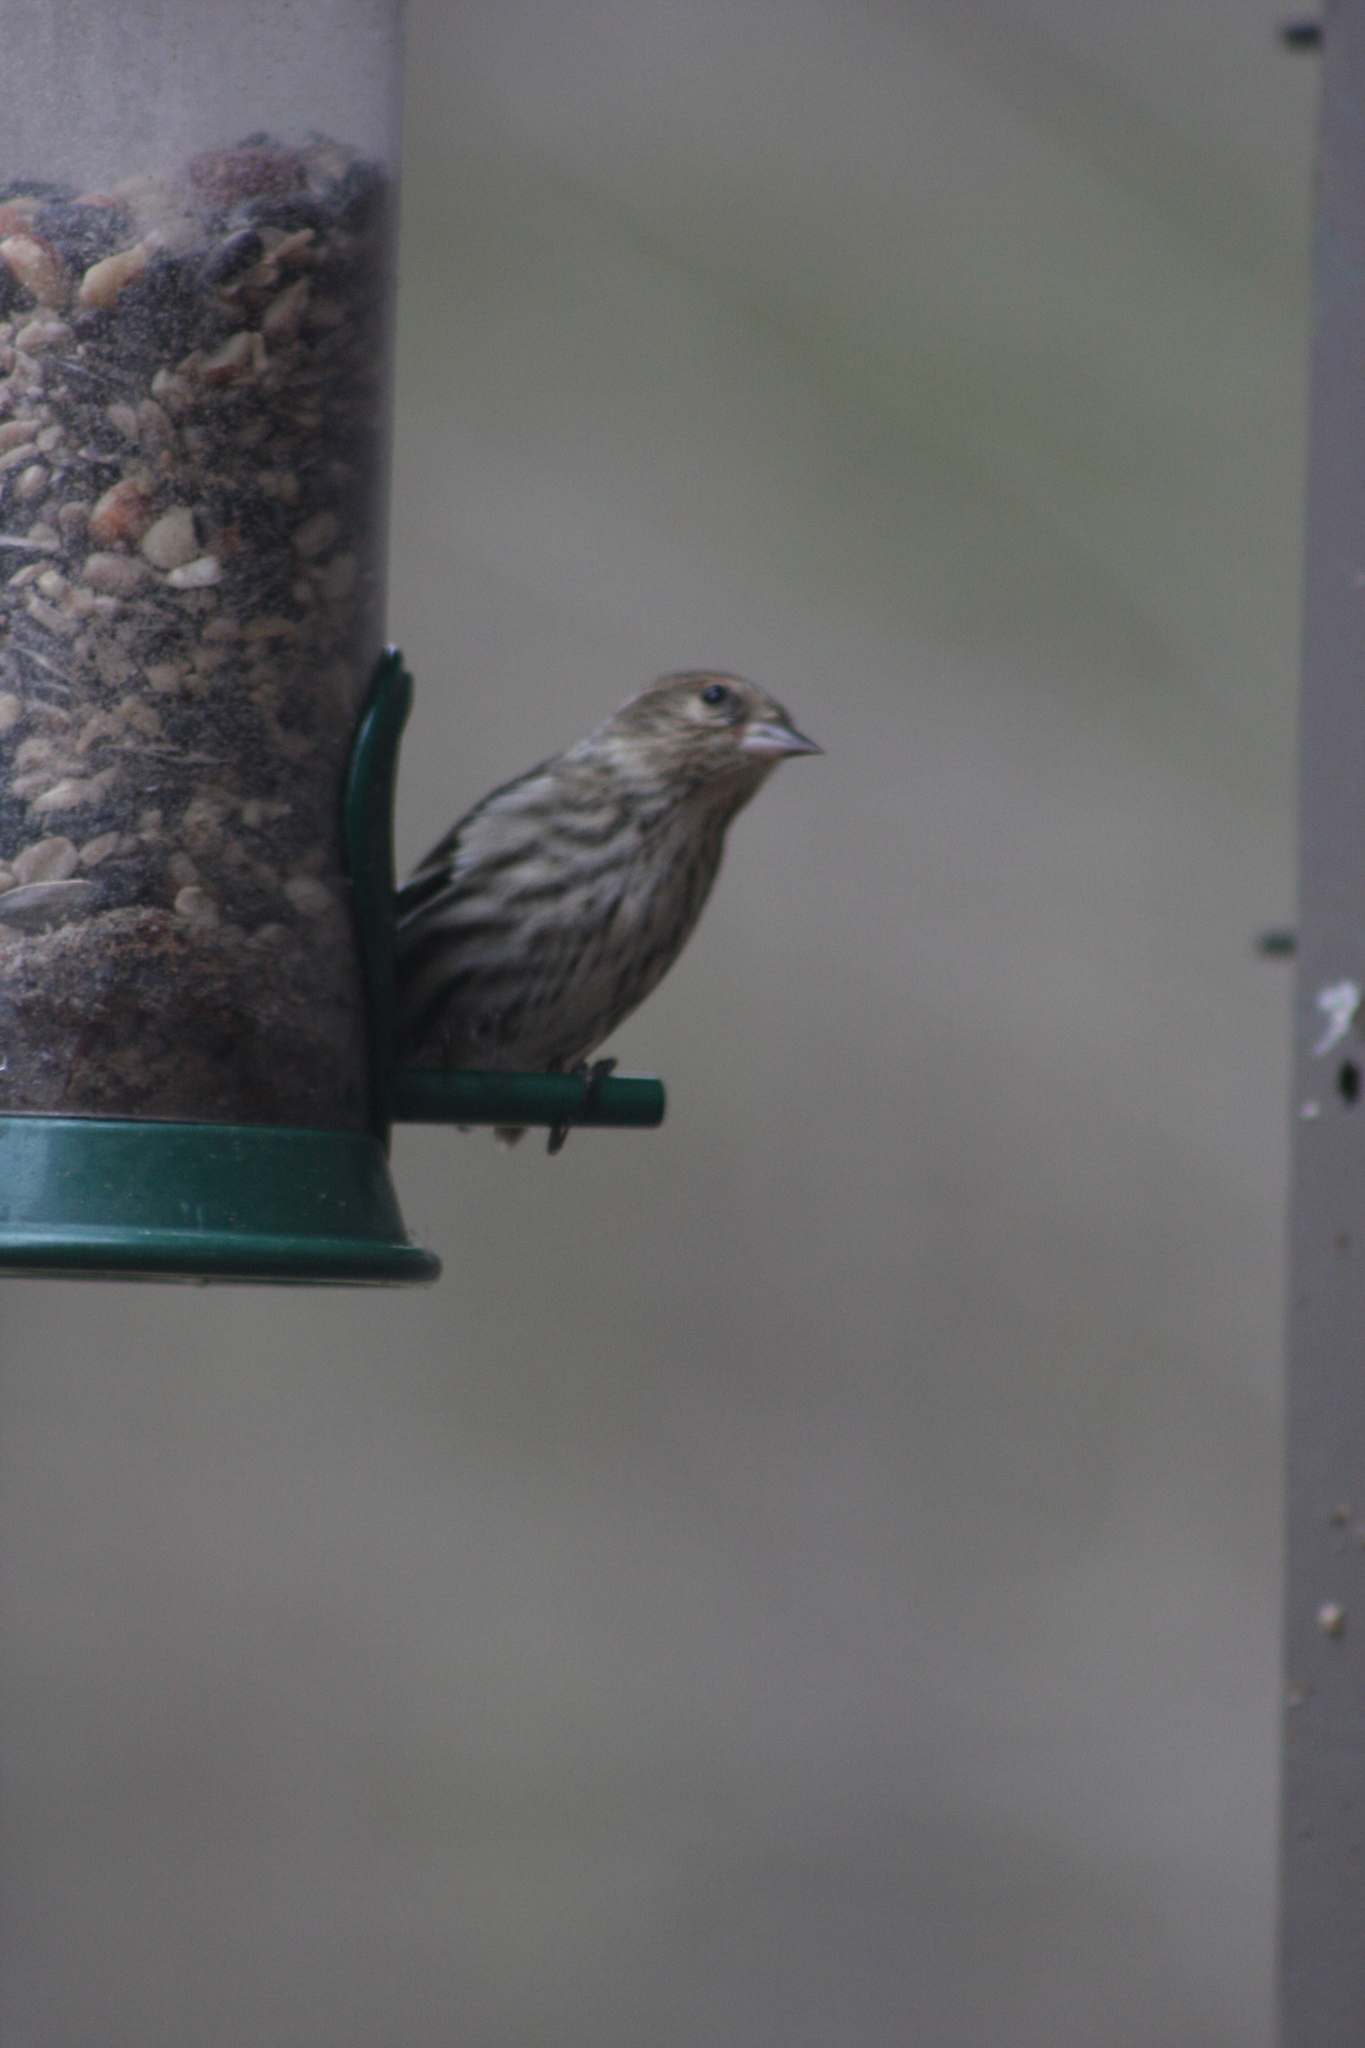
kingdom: Animalia
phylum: Chordata
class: Aves
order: Passeriformes
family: Fringillidae
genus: Spinus
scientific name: Spinus pinus
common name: Pine siskin
